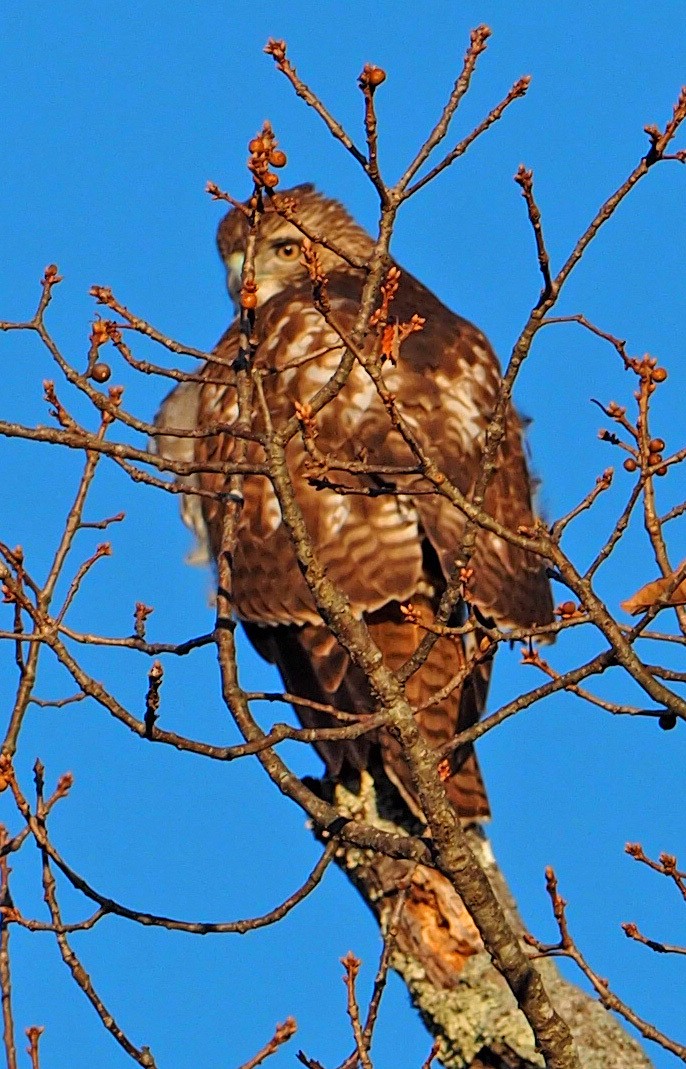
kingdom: Animalia
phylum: Chordata
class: Aves
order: Accipitriformes
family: Accipitridae
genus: Buteo
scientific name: Buteo jamaicensis
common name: Red-tailed hawk
